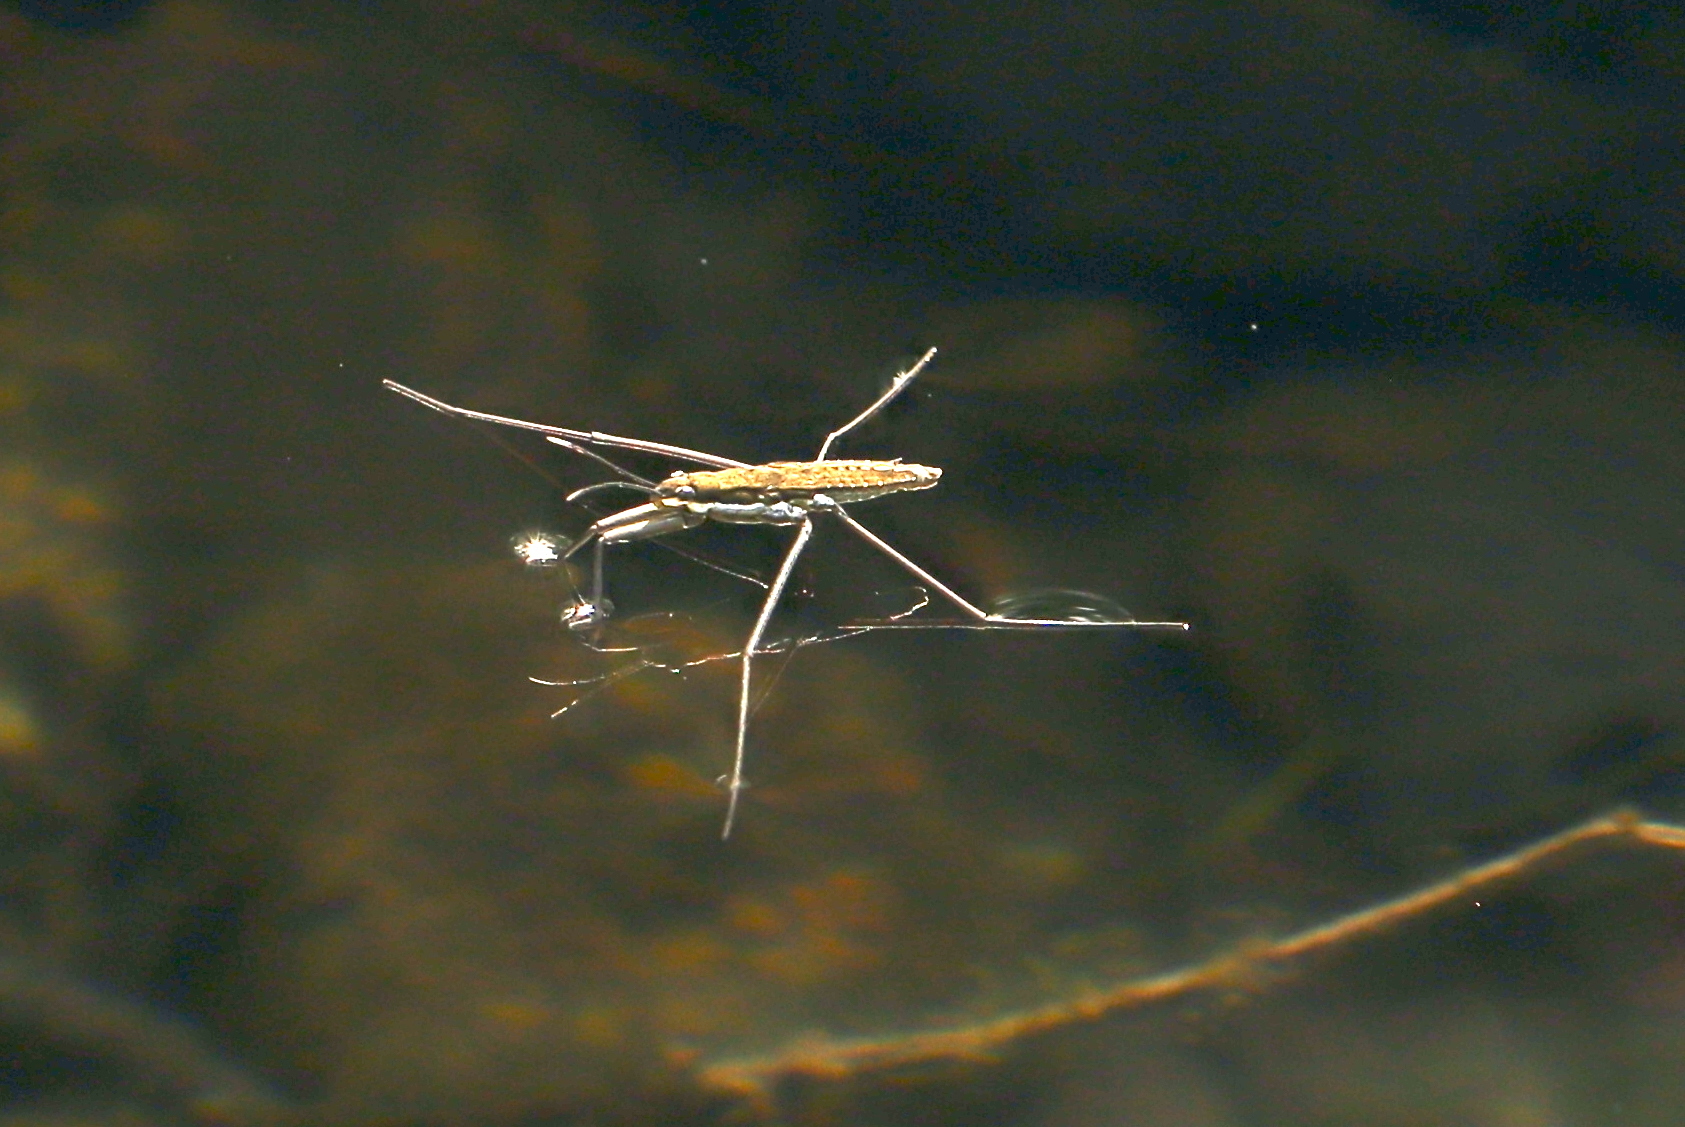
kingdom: Animalia
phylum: Arthropoda
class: Insecta
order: Hemiptera
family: Gerridae
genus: Aquarius
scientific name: Aquarius remigis
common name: Common water strider
